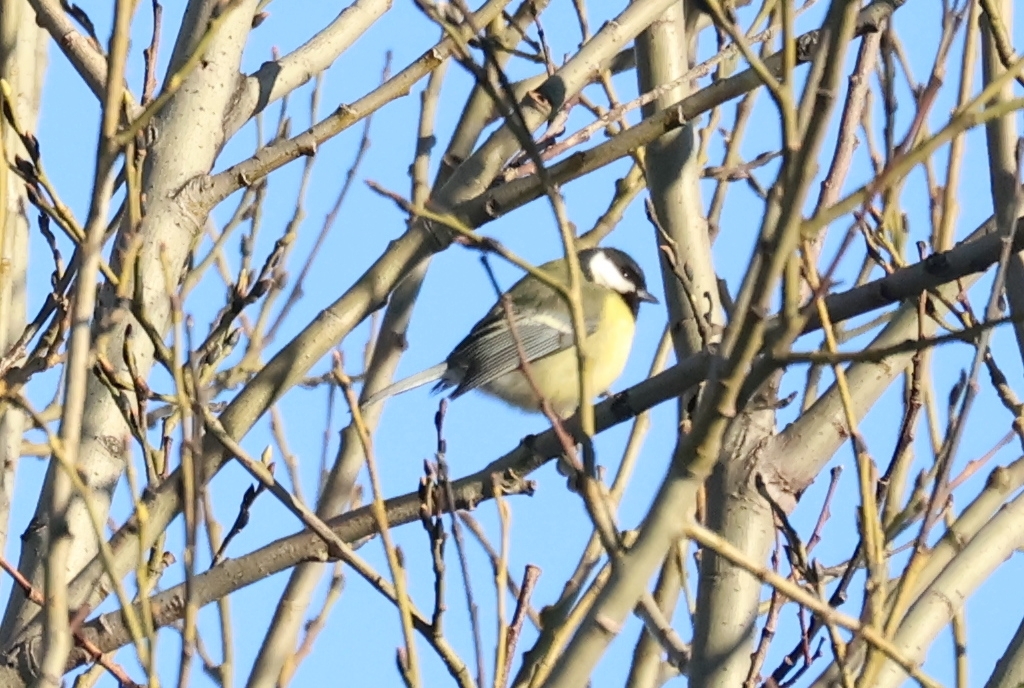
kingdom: Animalia
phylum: Chordata
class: Aves
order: Passeriformes
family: Paridae
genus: Parus
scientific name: Parus major
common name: Great tit
